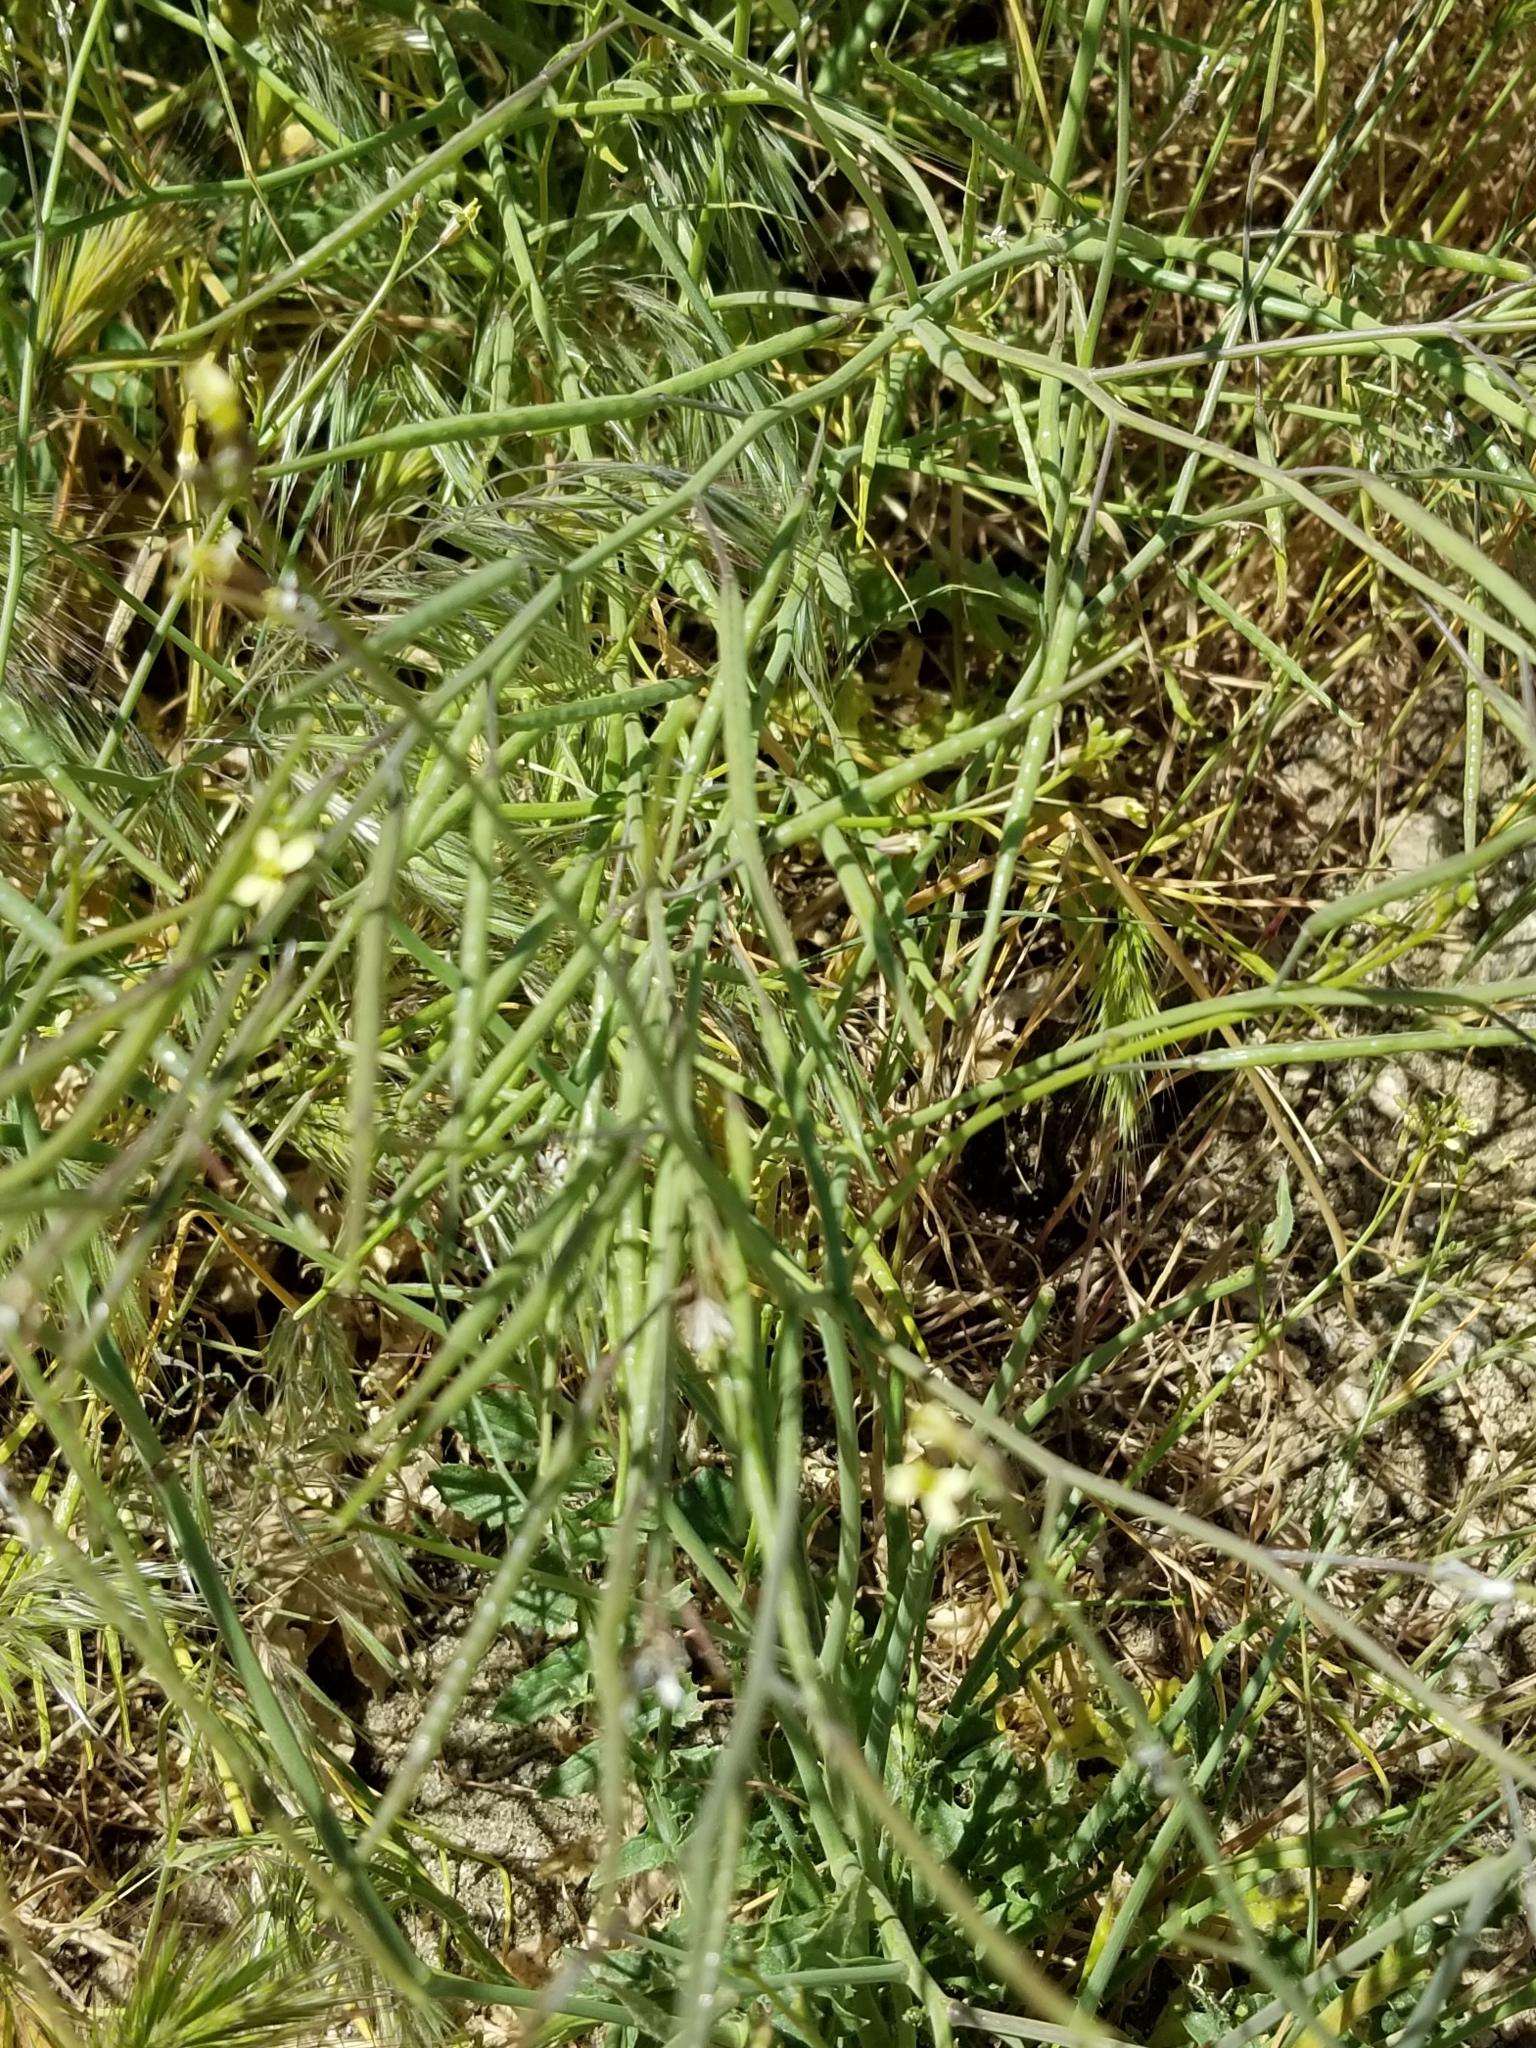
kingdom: Plantae
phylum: Tracheophyta
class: Magnoliopsida
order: Brassicales
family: Brassicaceae
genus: Brassica
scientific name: Brassica tournefortii
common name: Pale cabbage
